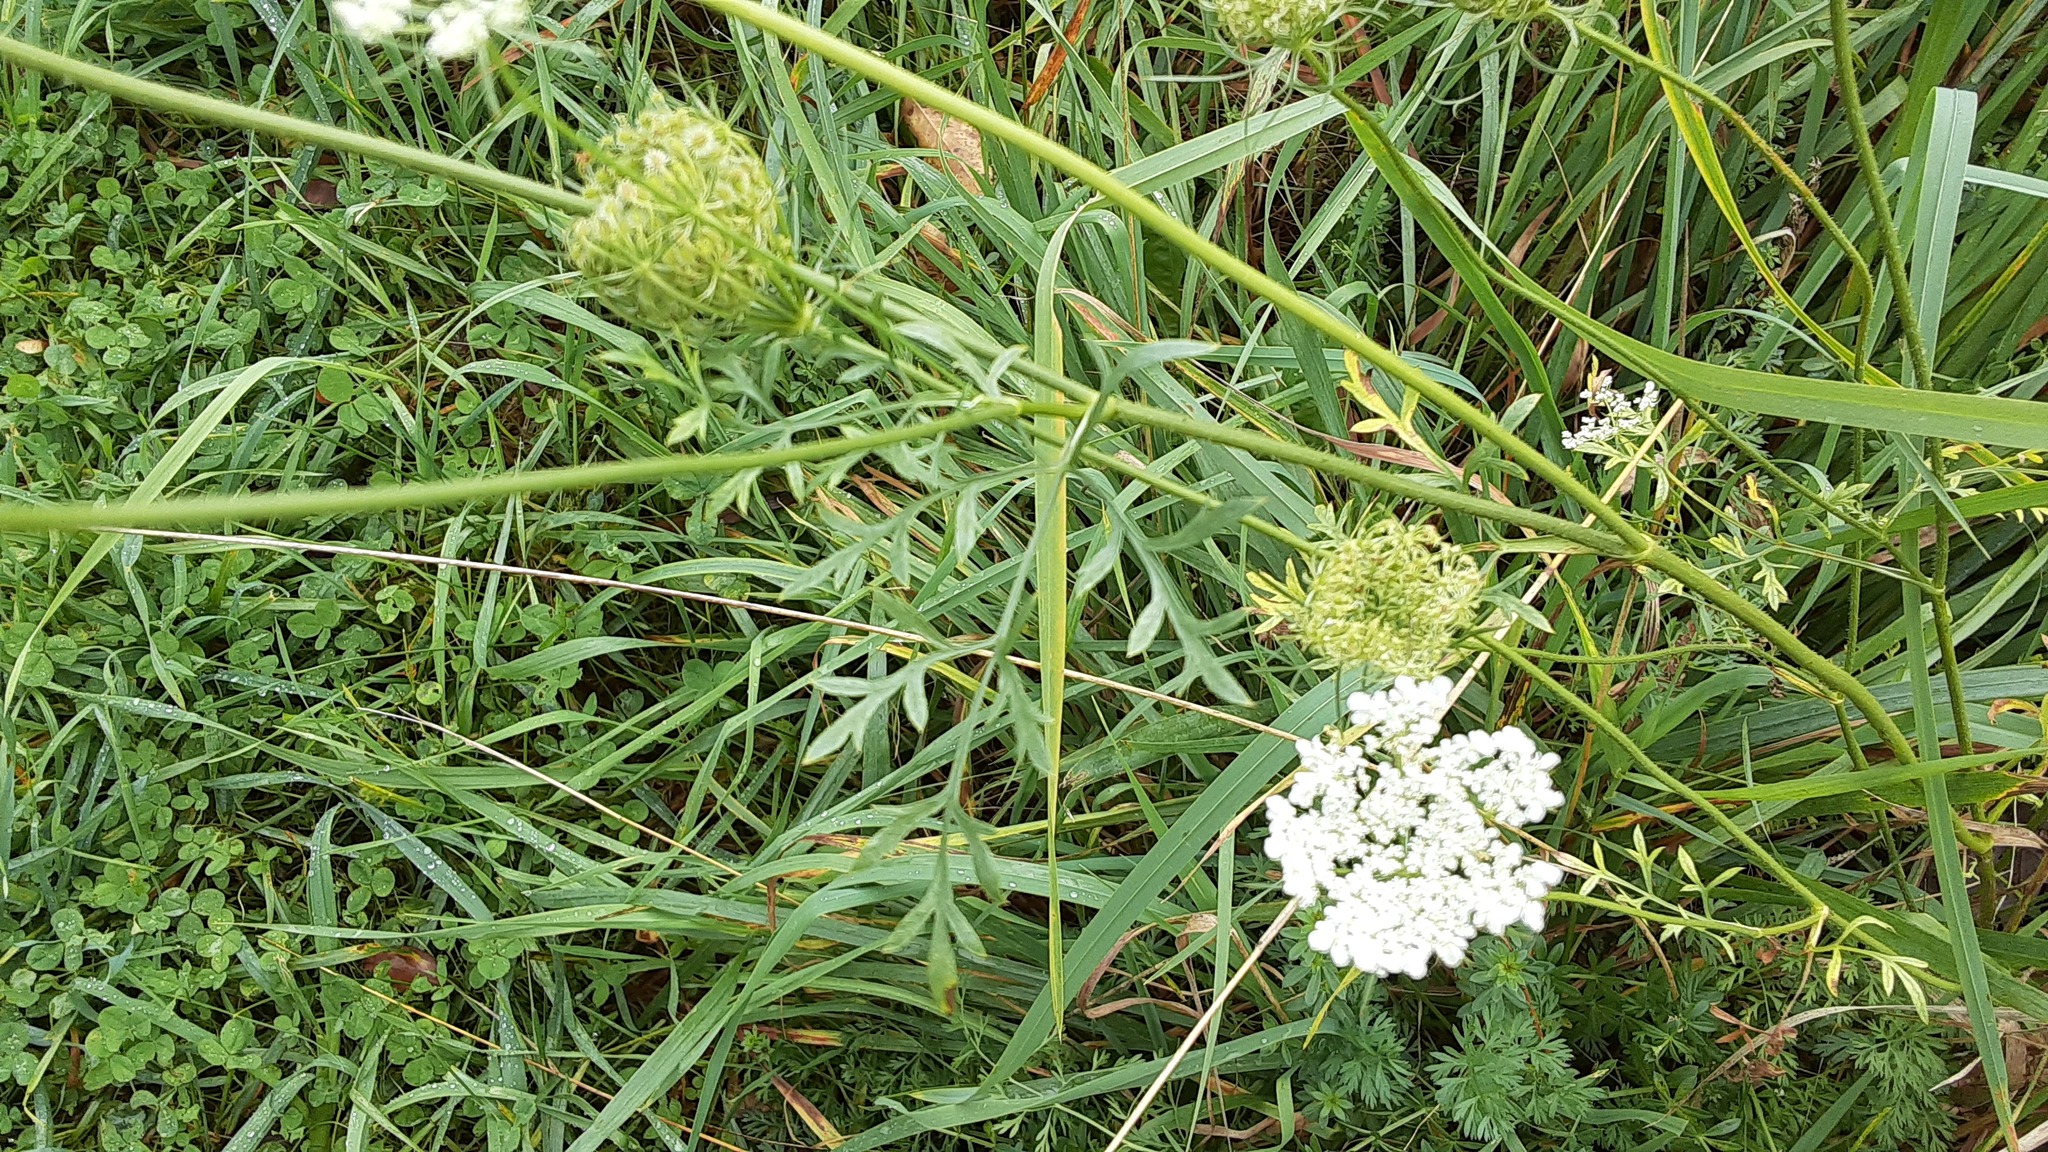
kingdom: Plantae
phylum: Tracheophyta
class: Magnoliopsida
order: Apiales
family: Apiaceae
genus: Daucus
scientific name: Daucus carota
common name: Wild carrot
